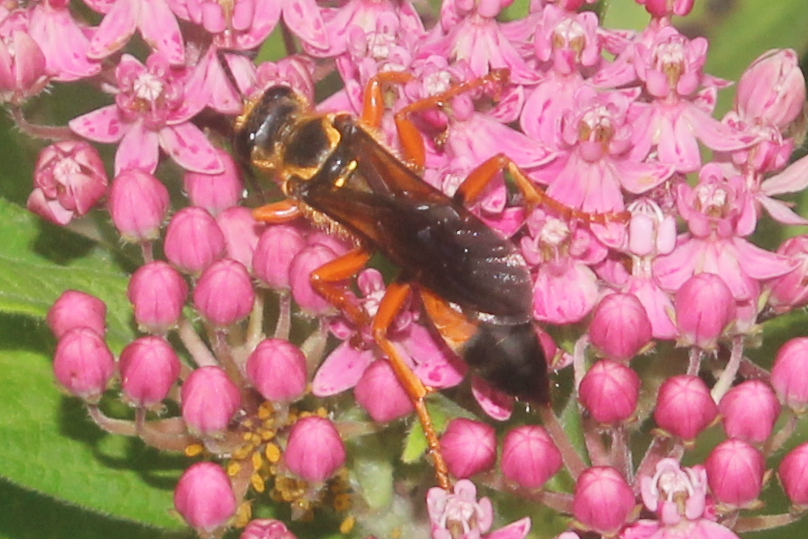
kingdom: Animalia
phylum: Arthropoda
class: Insecta
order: Hymenoptera
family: Sphecidae
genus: Sphex
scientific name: Sphex ichneumoneus
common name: Great golden digger wasp
